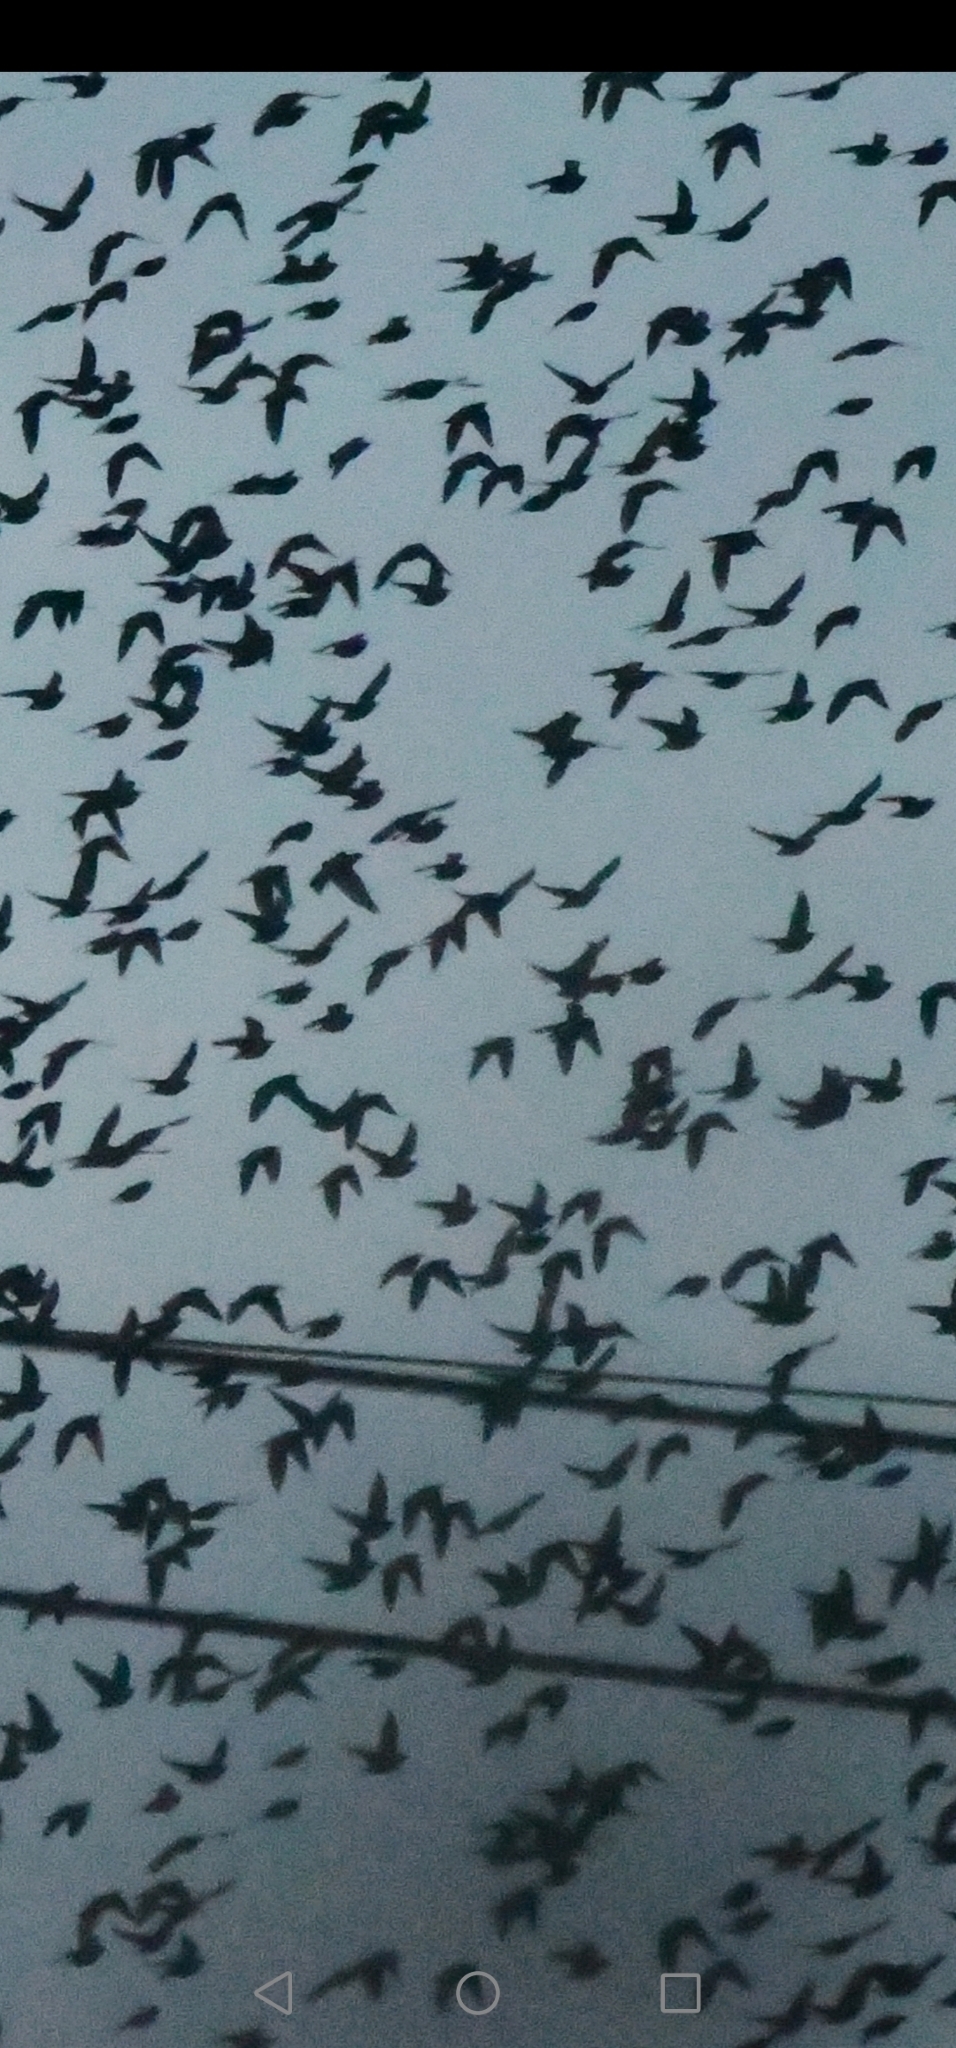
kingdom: Animalia
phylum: Chordata
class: Aves
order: Passeriformes
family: Sturnidae
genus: Sturnus
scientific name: Sturnus vulgaris
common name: Common starling
